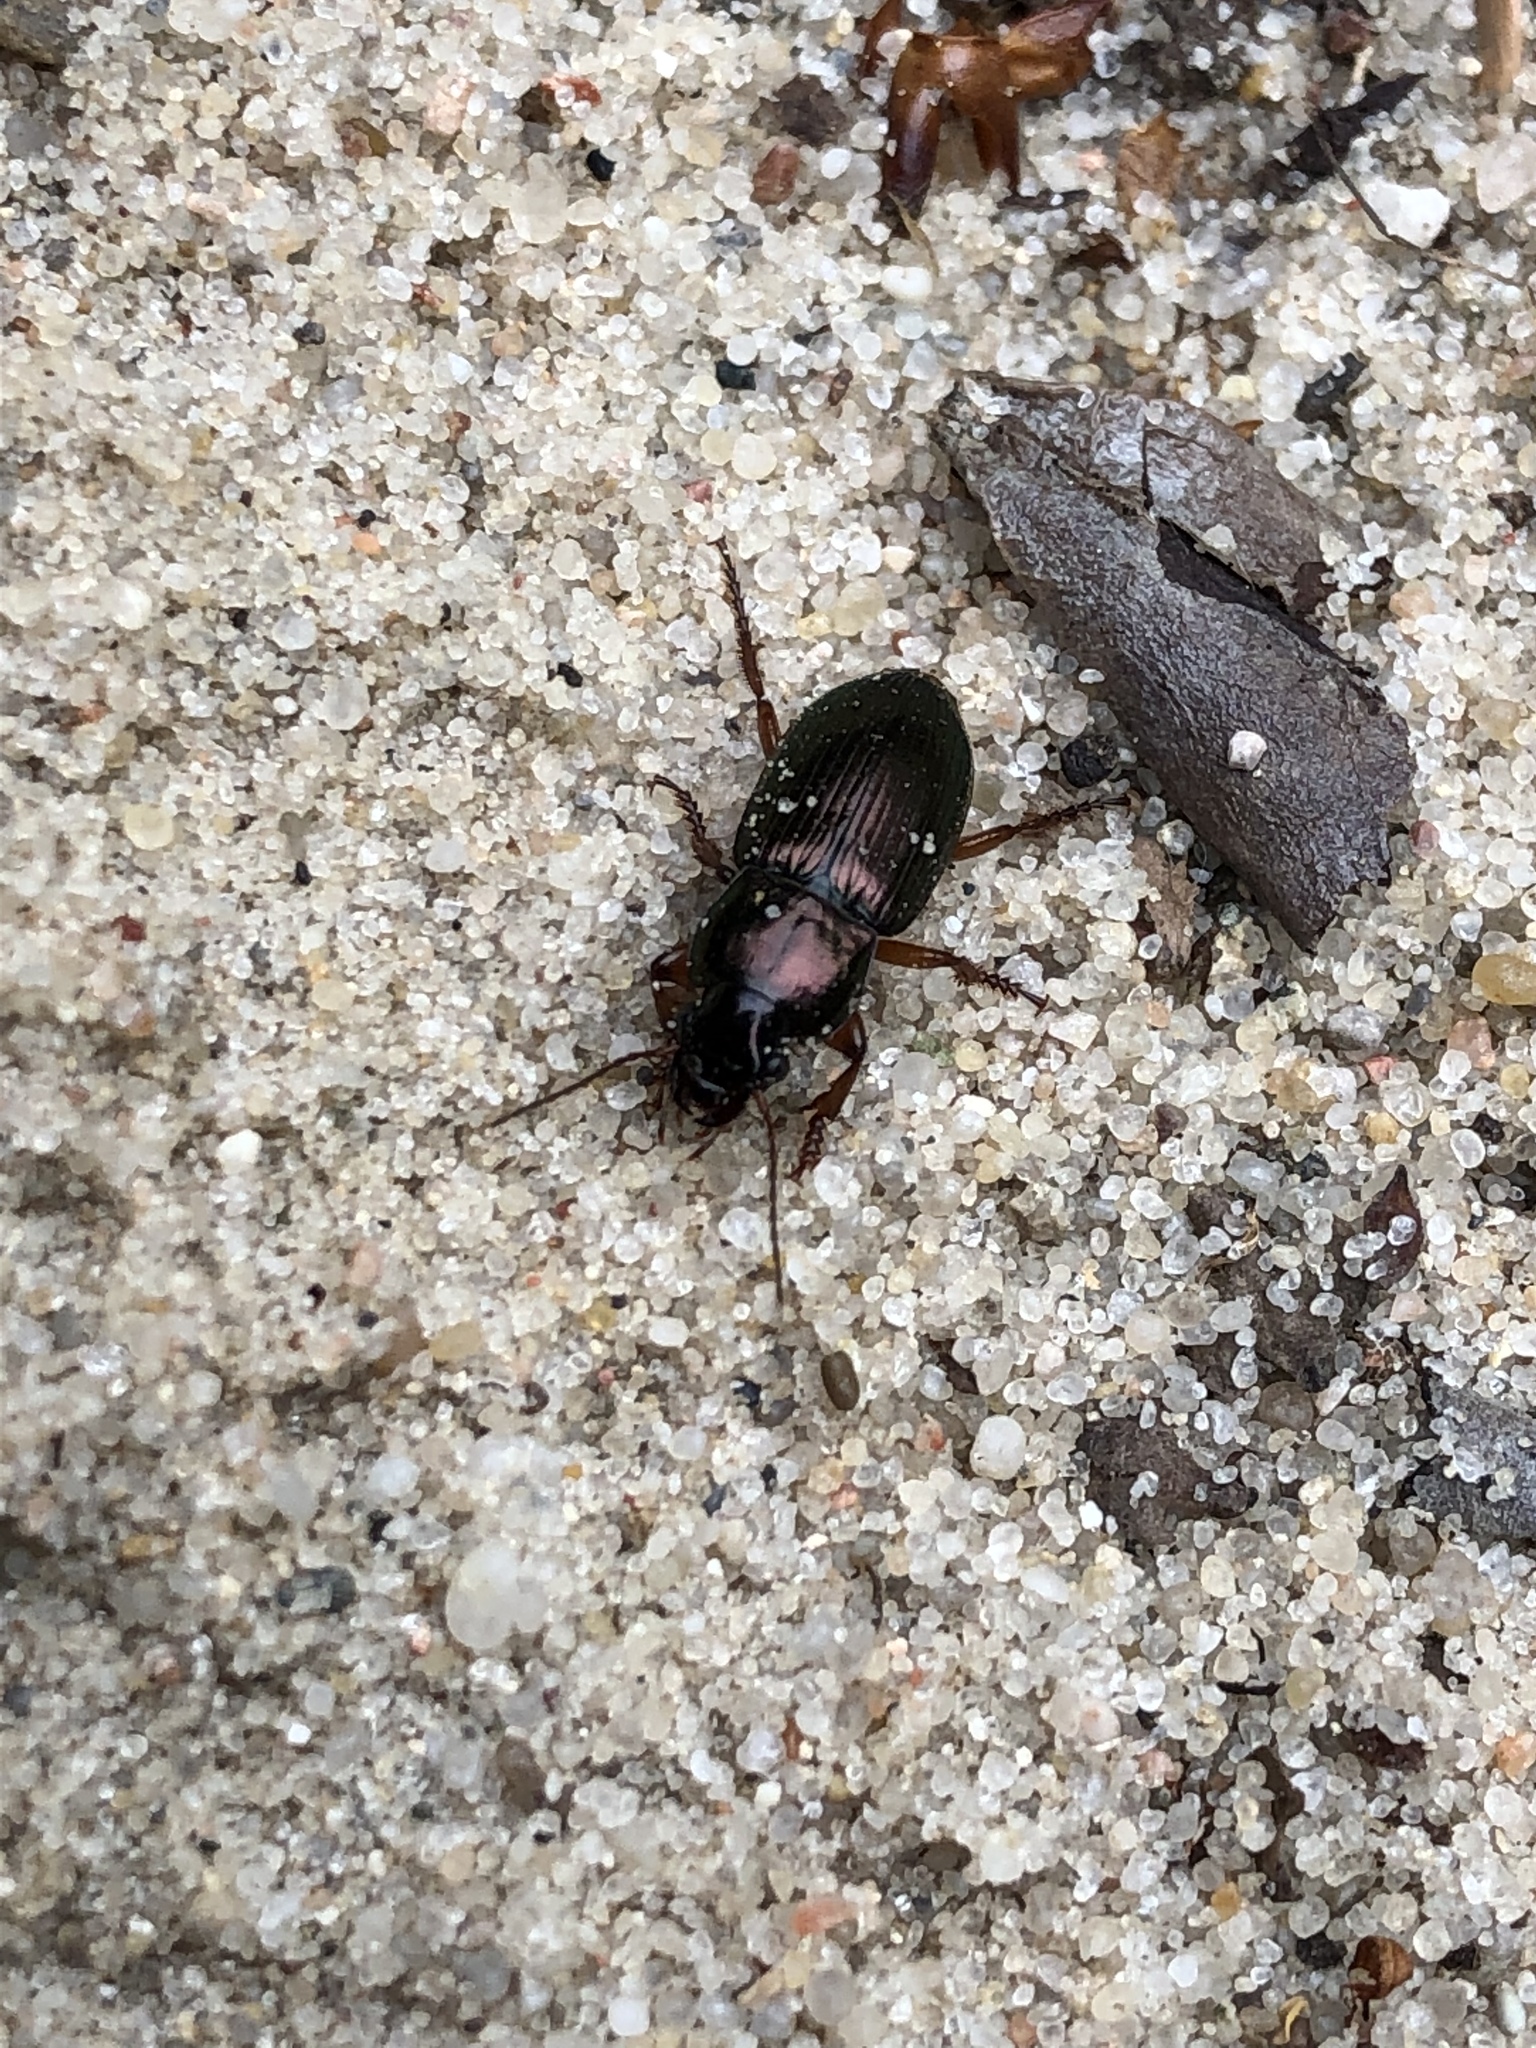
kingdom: Animalia
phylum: Arthropoda
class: Insecta
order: Coleoptera
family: Carabidae
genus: Harpalus
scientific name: Harpalus affinis
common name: Polychrome harp ground beetle
